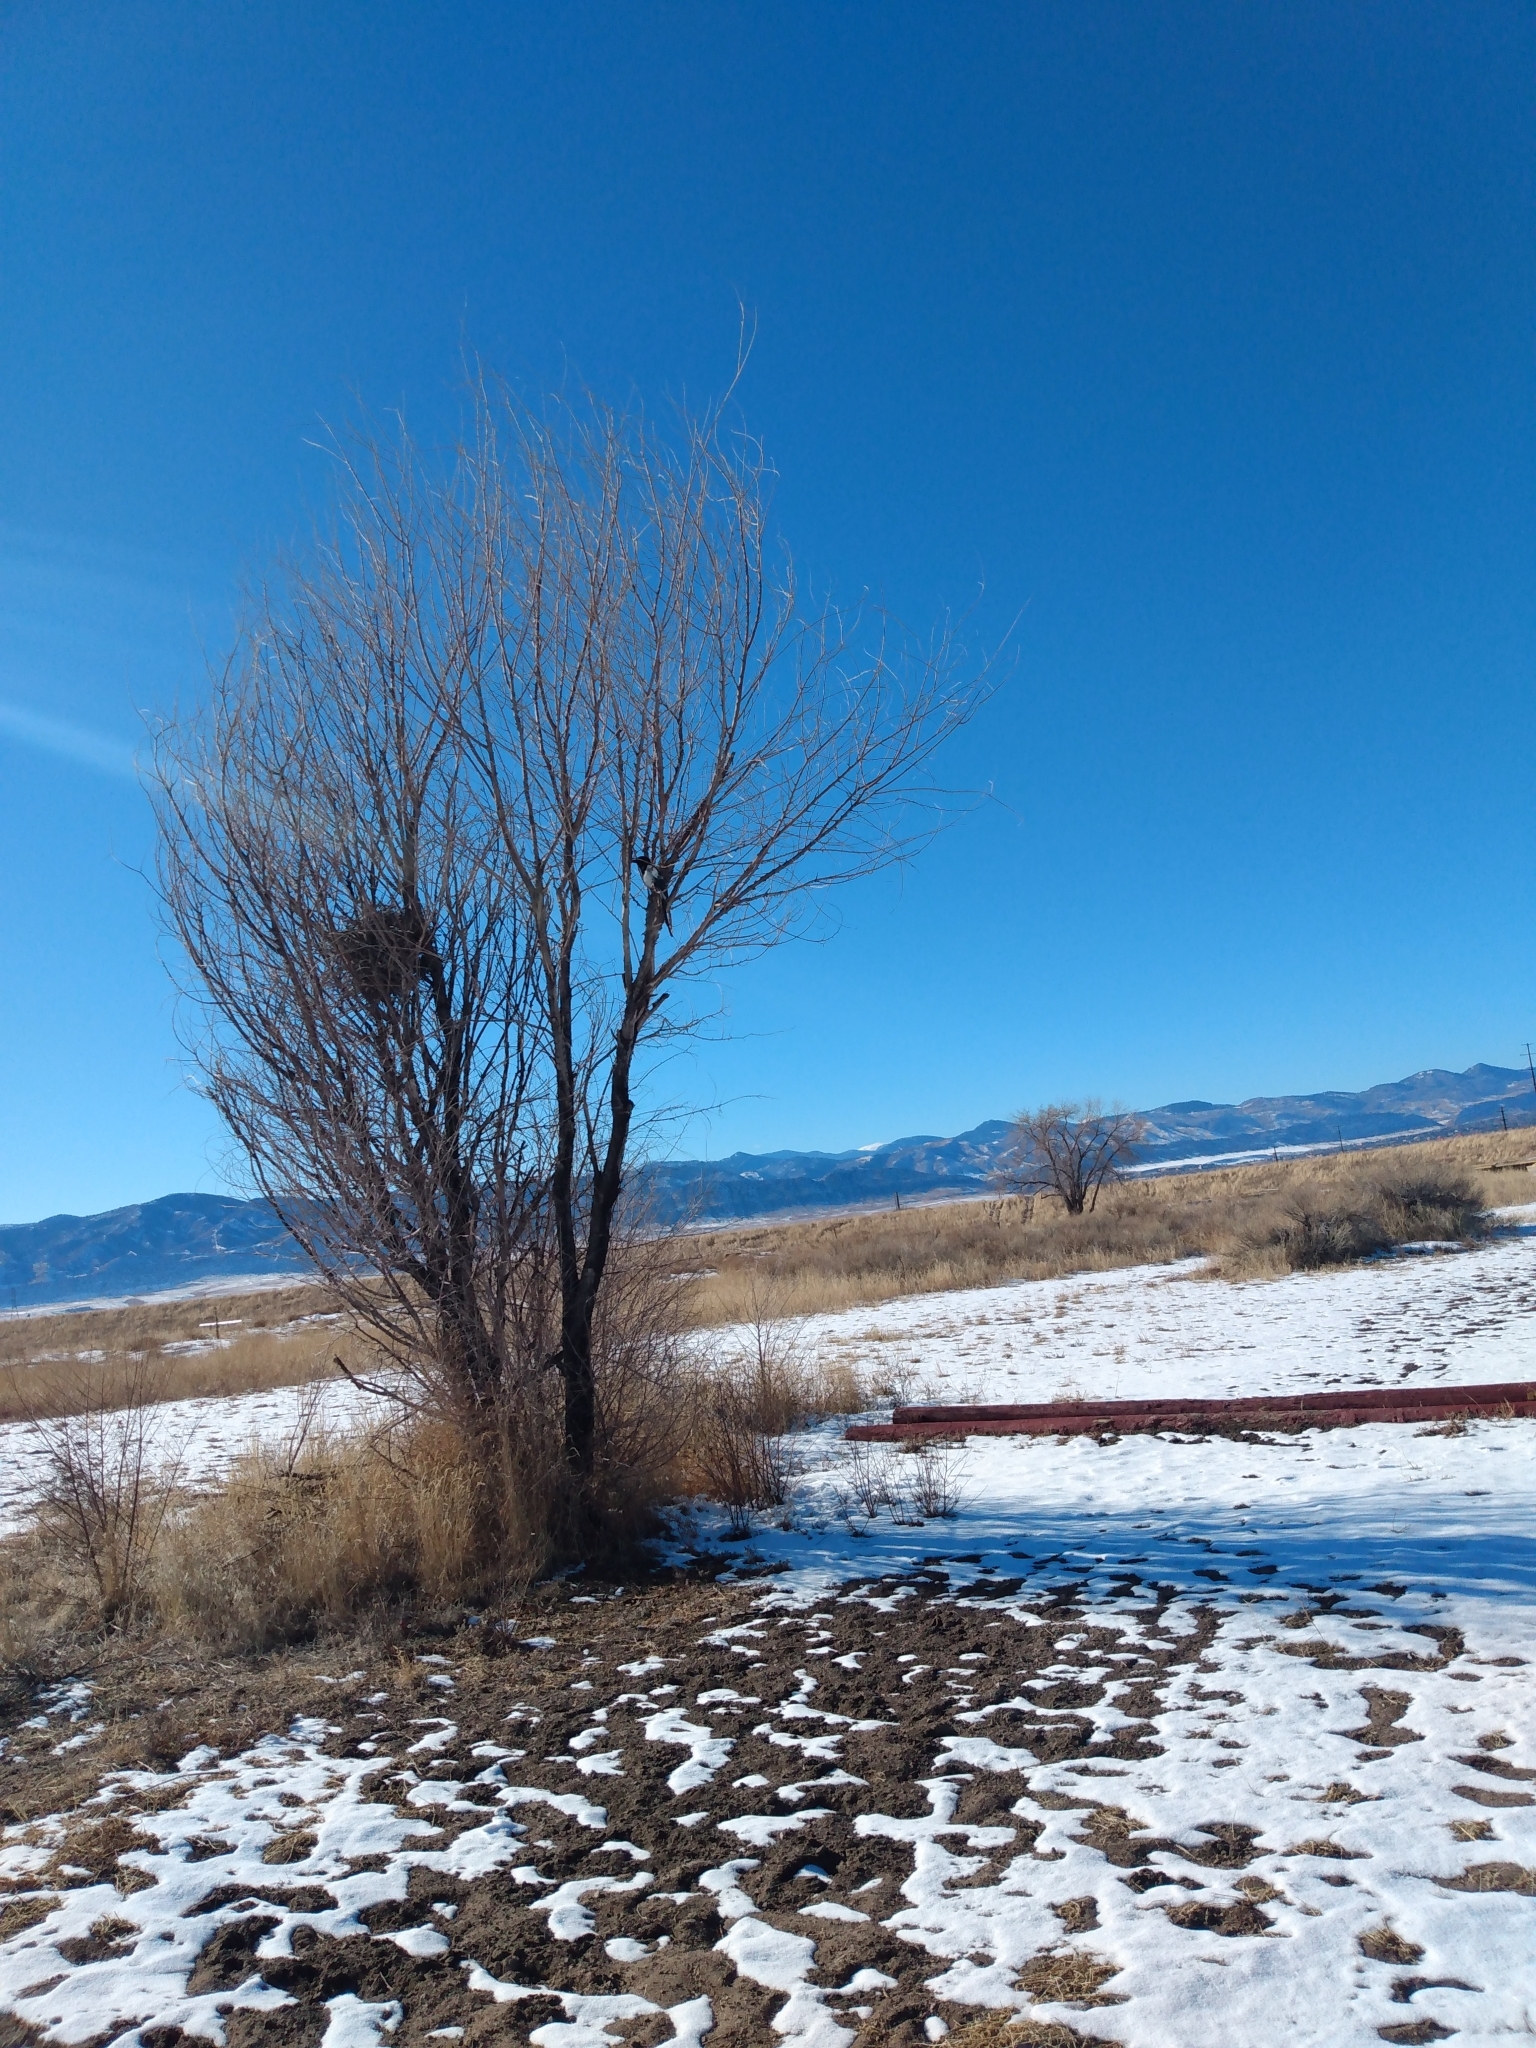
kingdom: Animalia
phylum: Chordata
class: Aves
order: Passeriformes
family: Corvidae
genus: Pica
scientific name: Pica hudsonia
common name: Black-billed magpie
